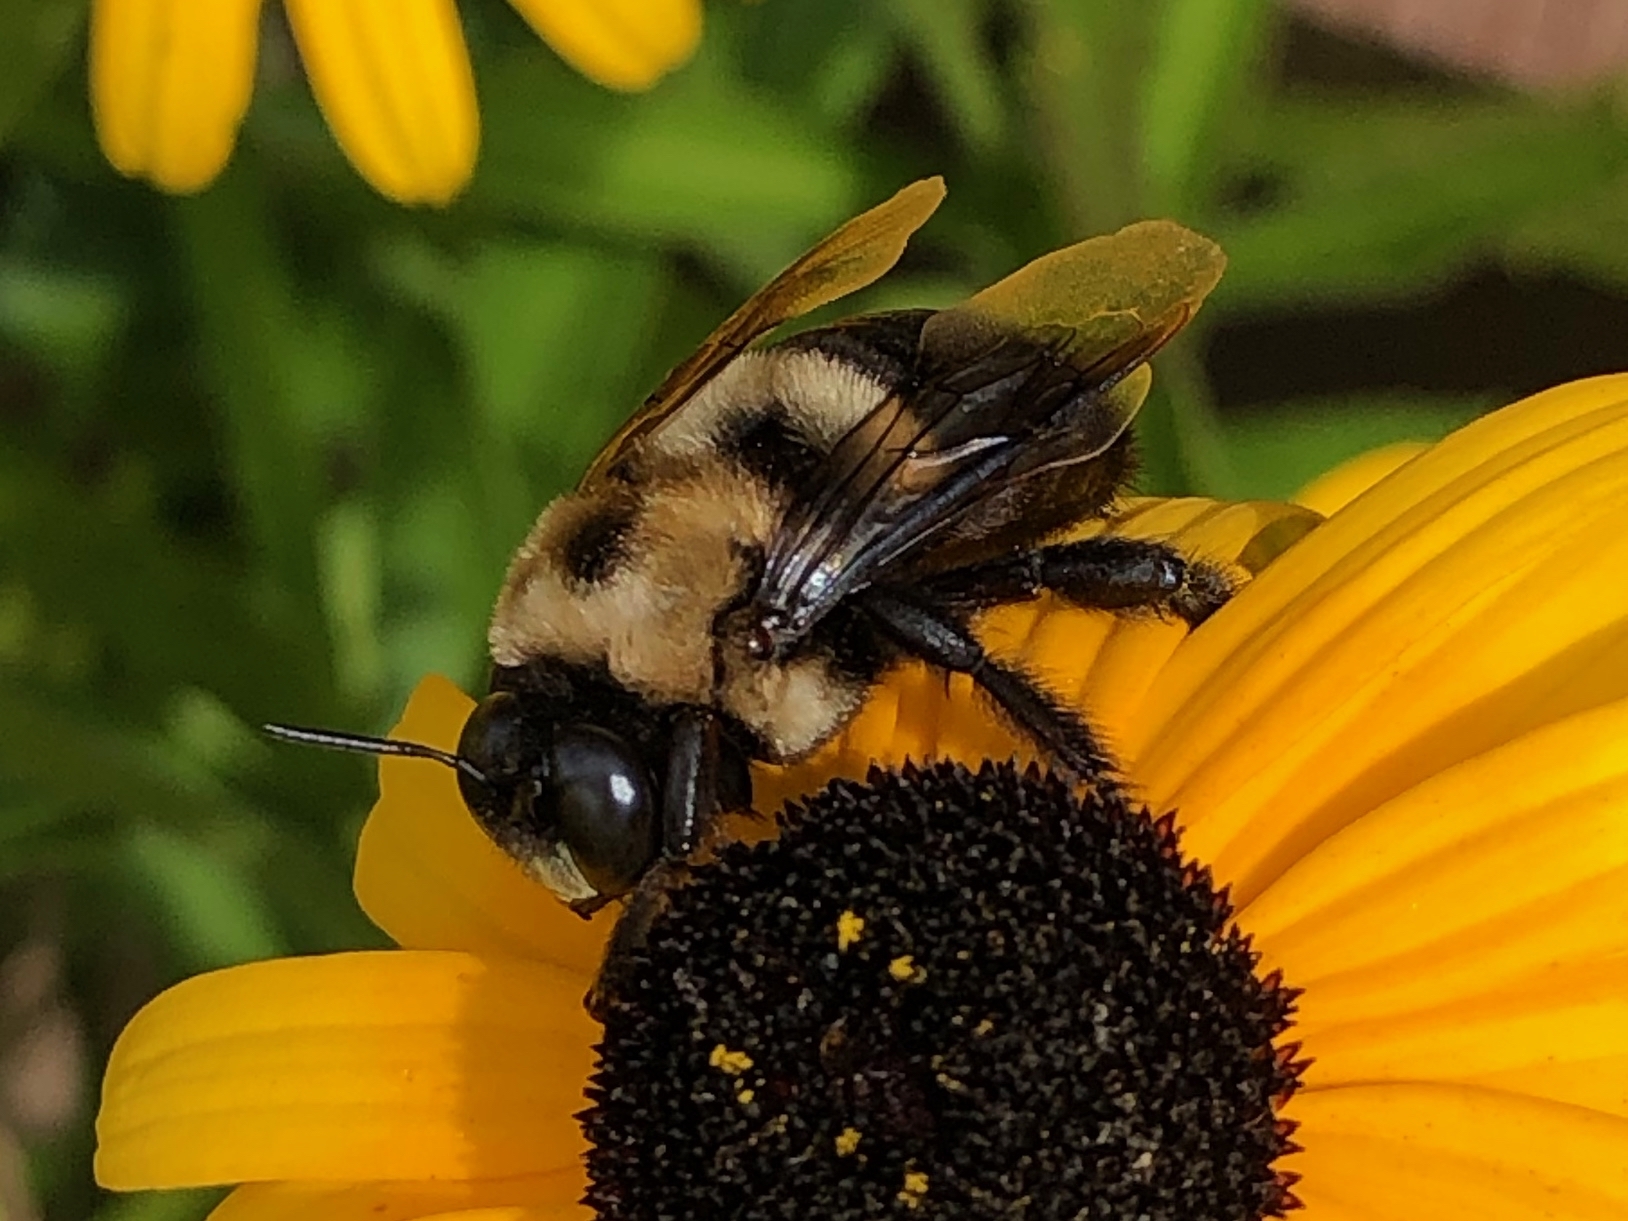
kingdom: Animalia
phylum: Arthropoda
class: Insecta
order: Hymenoptera
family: Apidae
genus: Xylocopa
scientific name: Xylocopa virginica
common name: Carpenter bee
